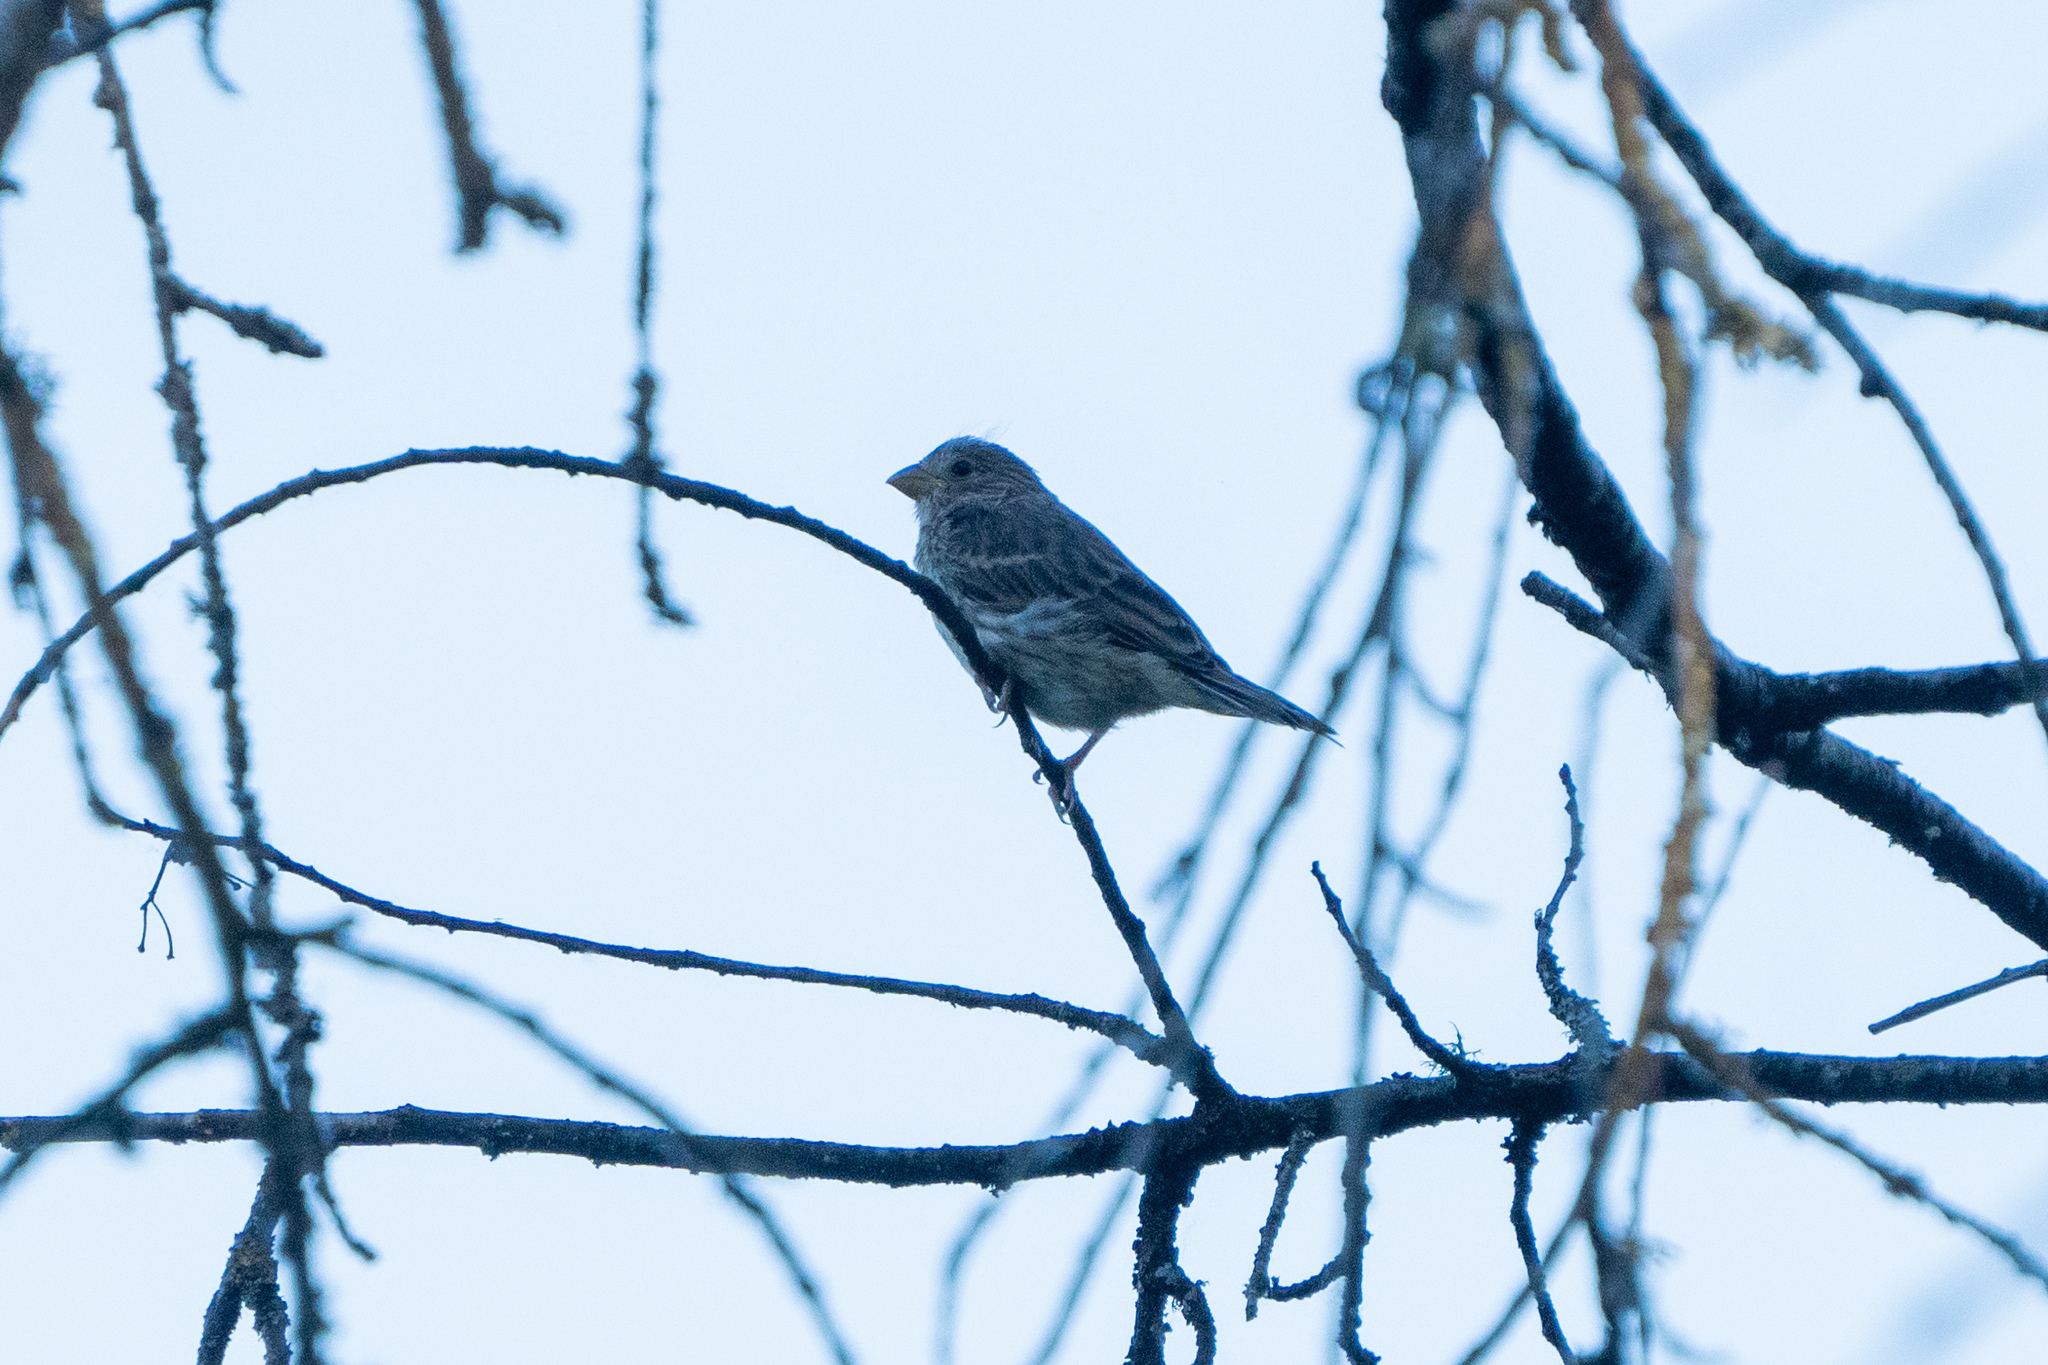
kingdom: Animalia
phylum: Chordata
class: Aves
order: Passeriformes
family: Fringillidae
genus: Haemorhous
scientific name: Haemorhous mexicanus
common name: House finch
